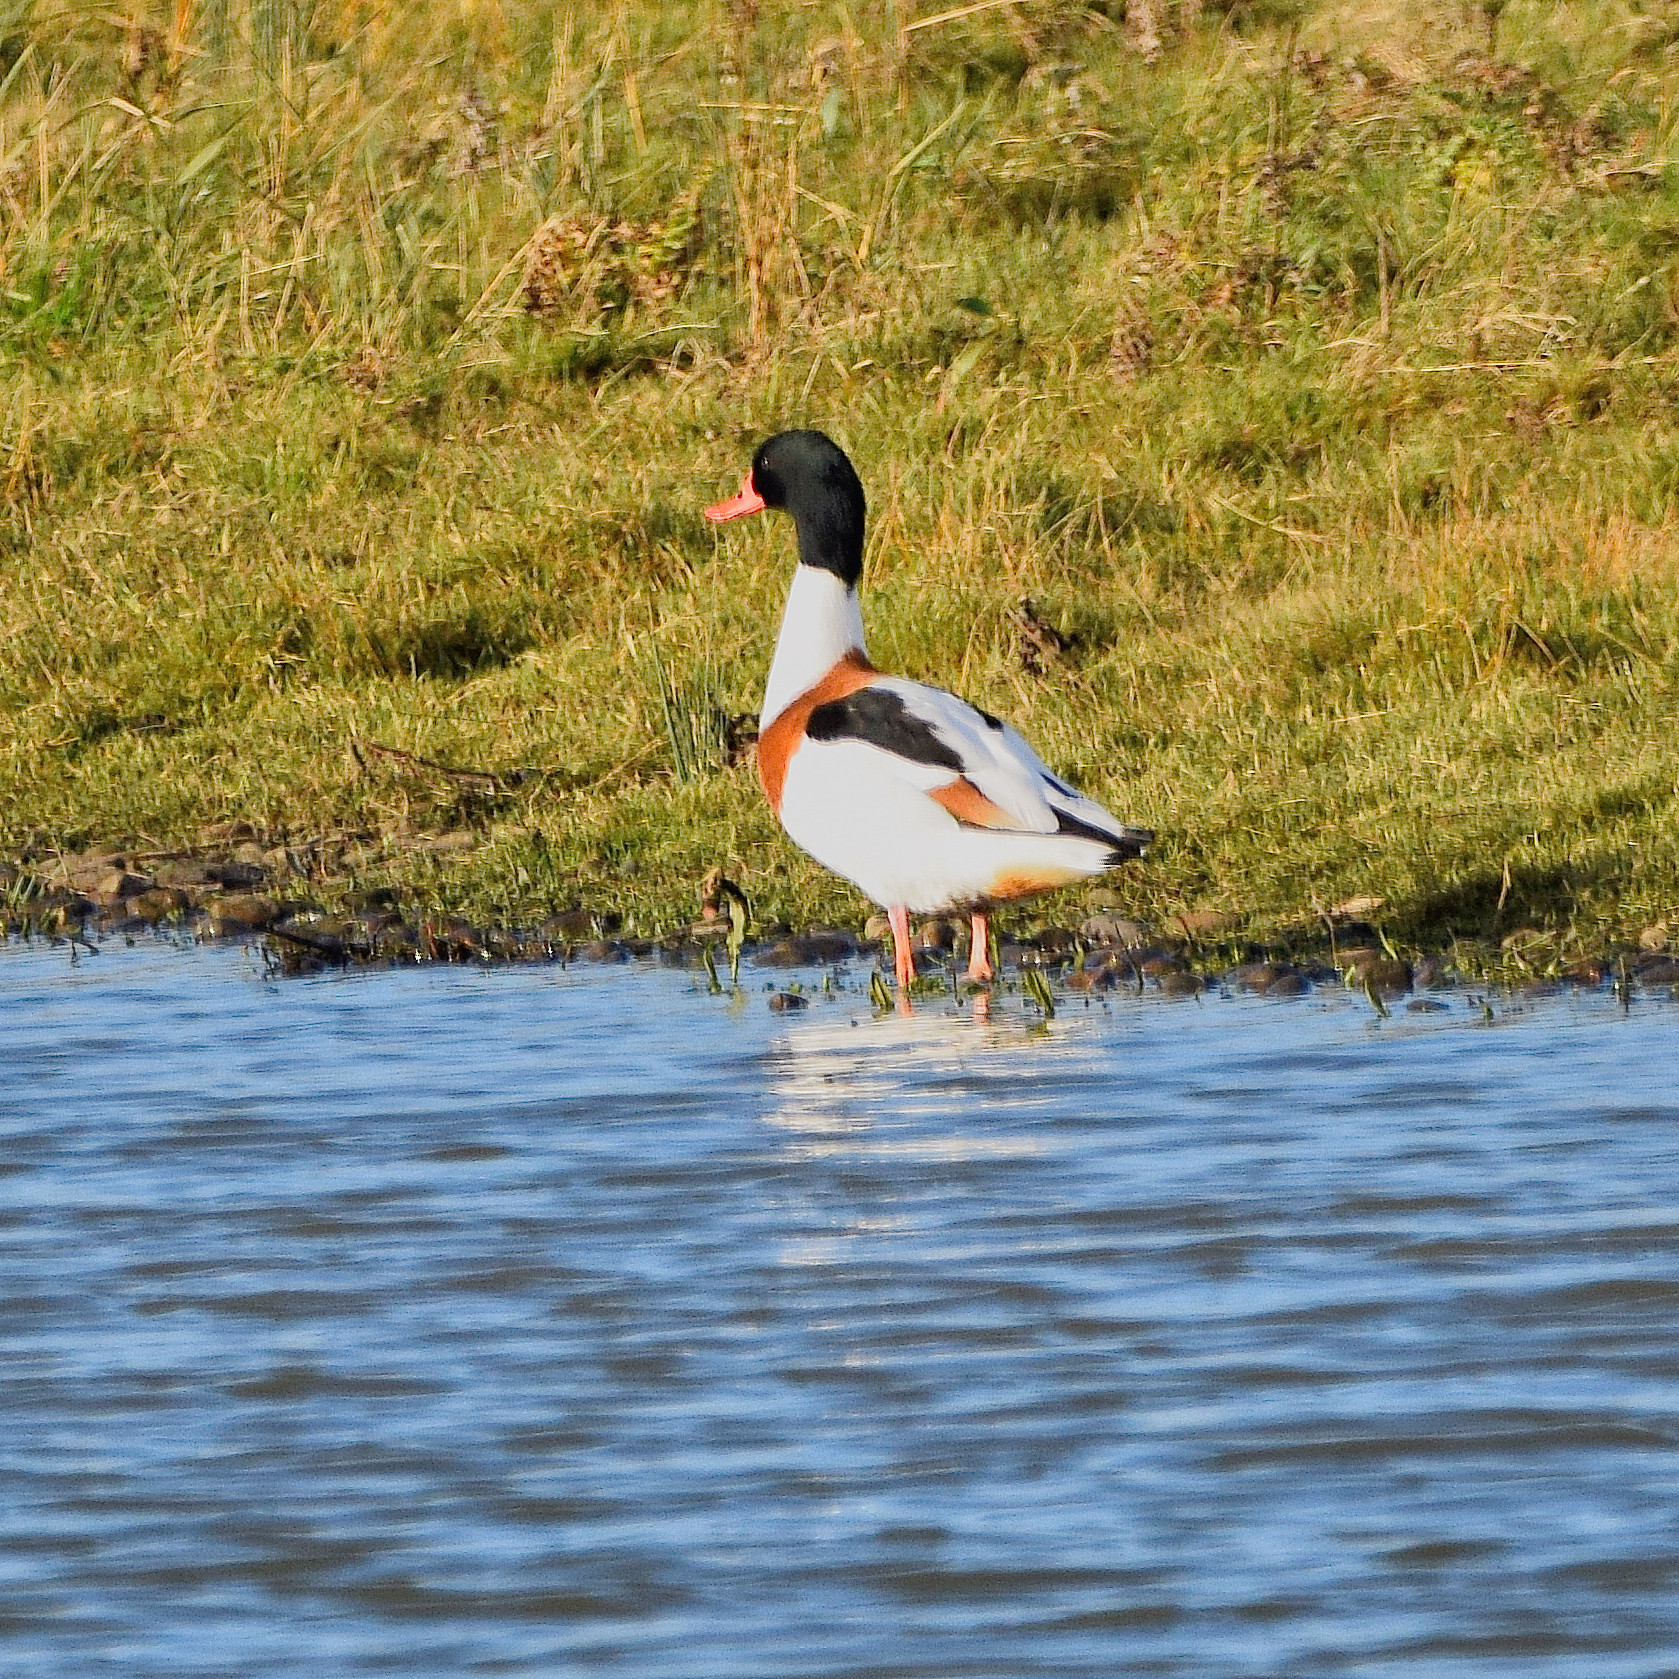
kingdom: Animalia
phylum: Chordata
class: Aves
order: Anseriformes
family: Anatidae
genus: Tadorna
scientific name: Tadorna tadorna
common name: Common shelduck
